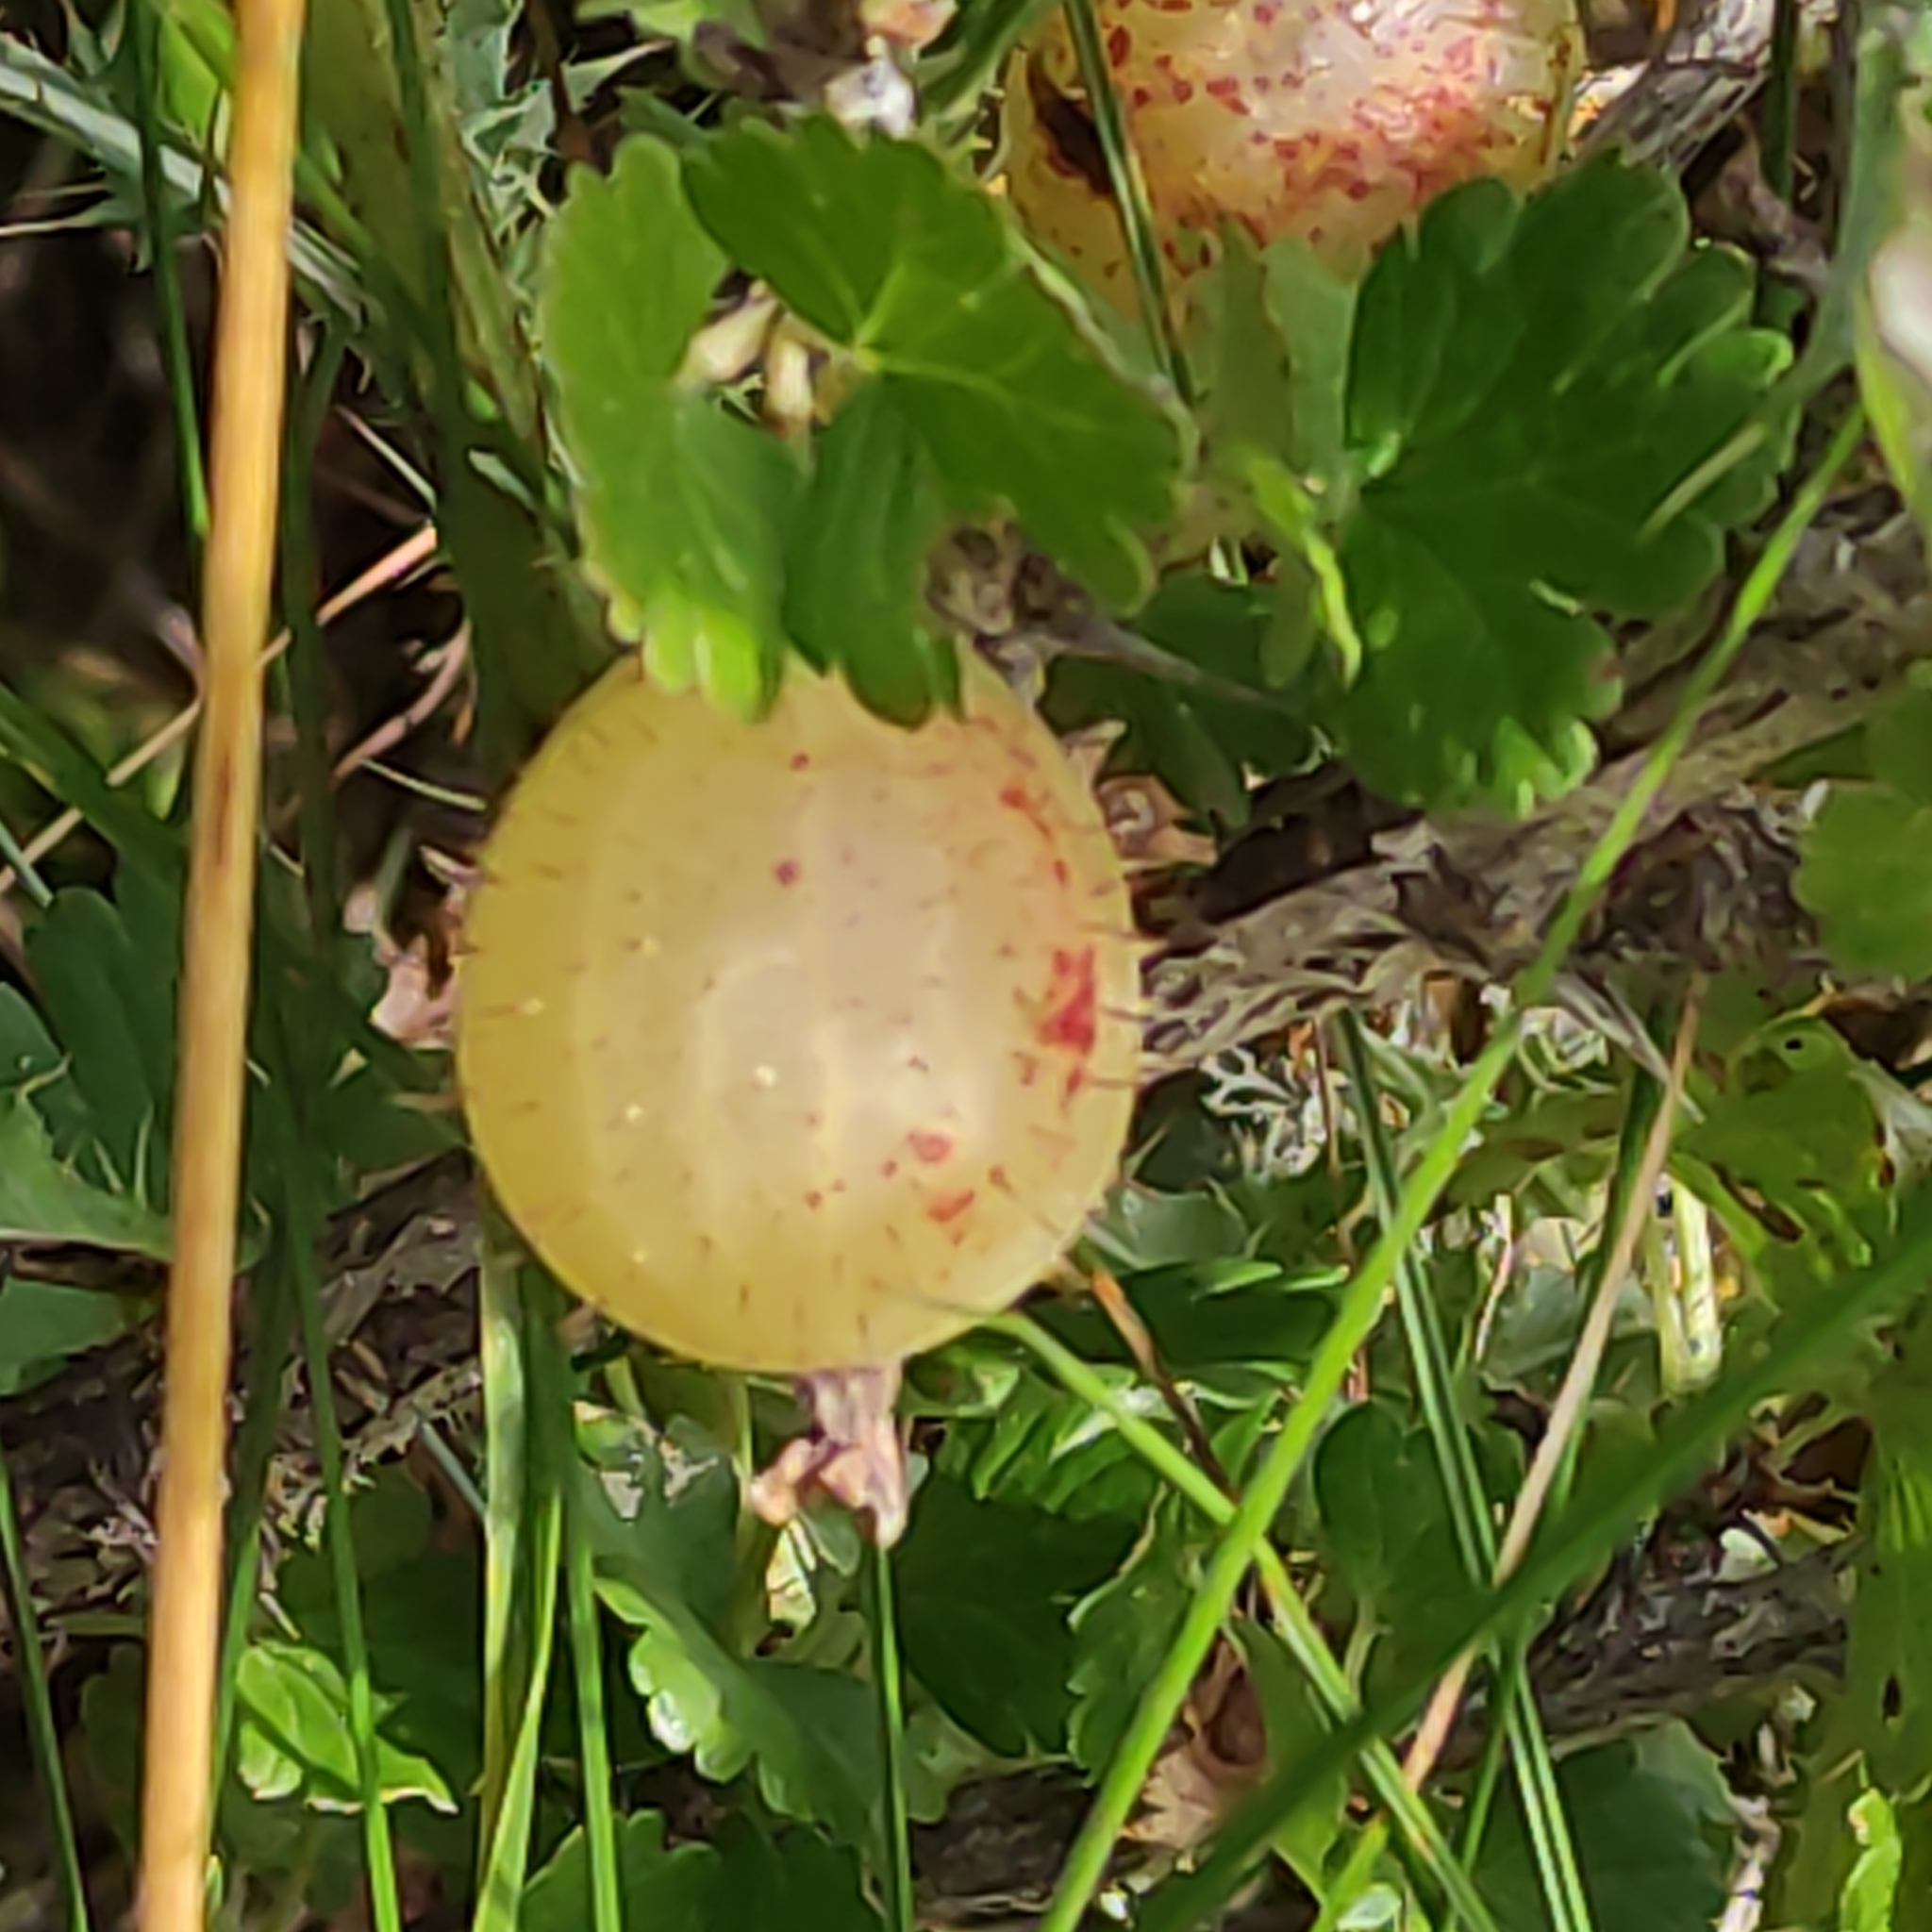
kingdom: Plantae
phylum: Tracheophyta
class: Magnoliopsida
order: Saxifragales
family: Grossulariaceae
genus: Ribes
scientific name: Ribes uva-crispa
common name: Gooseberry
